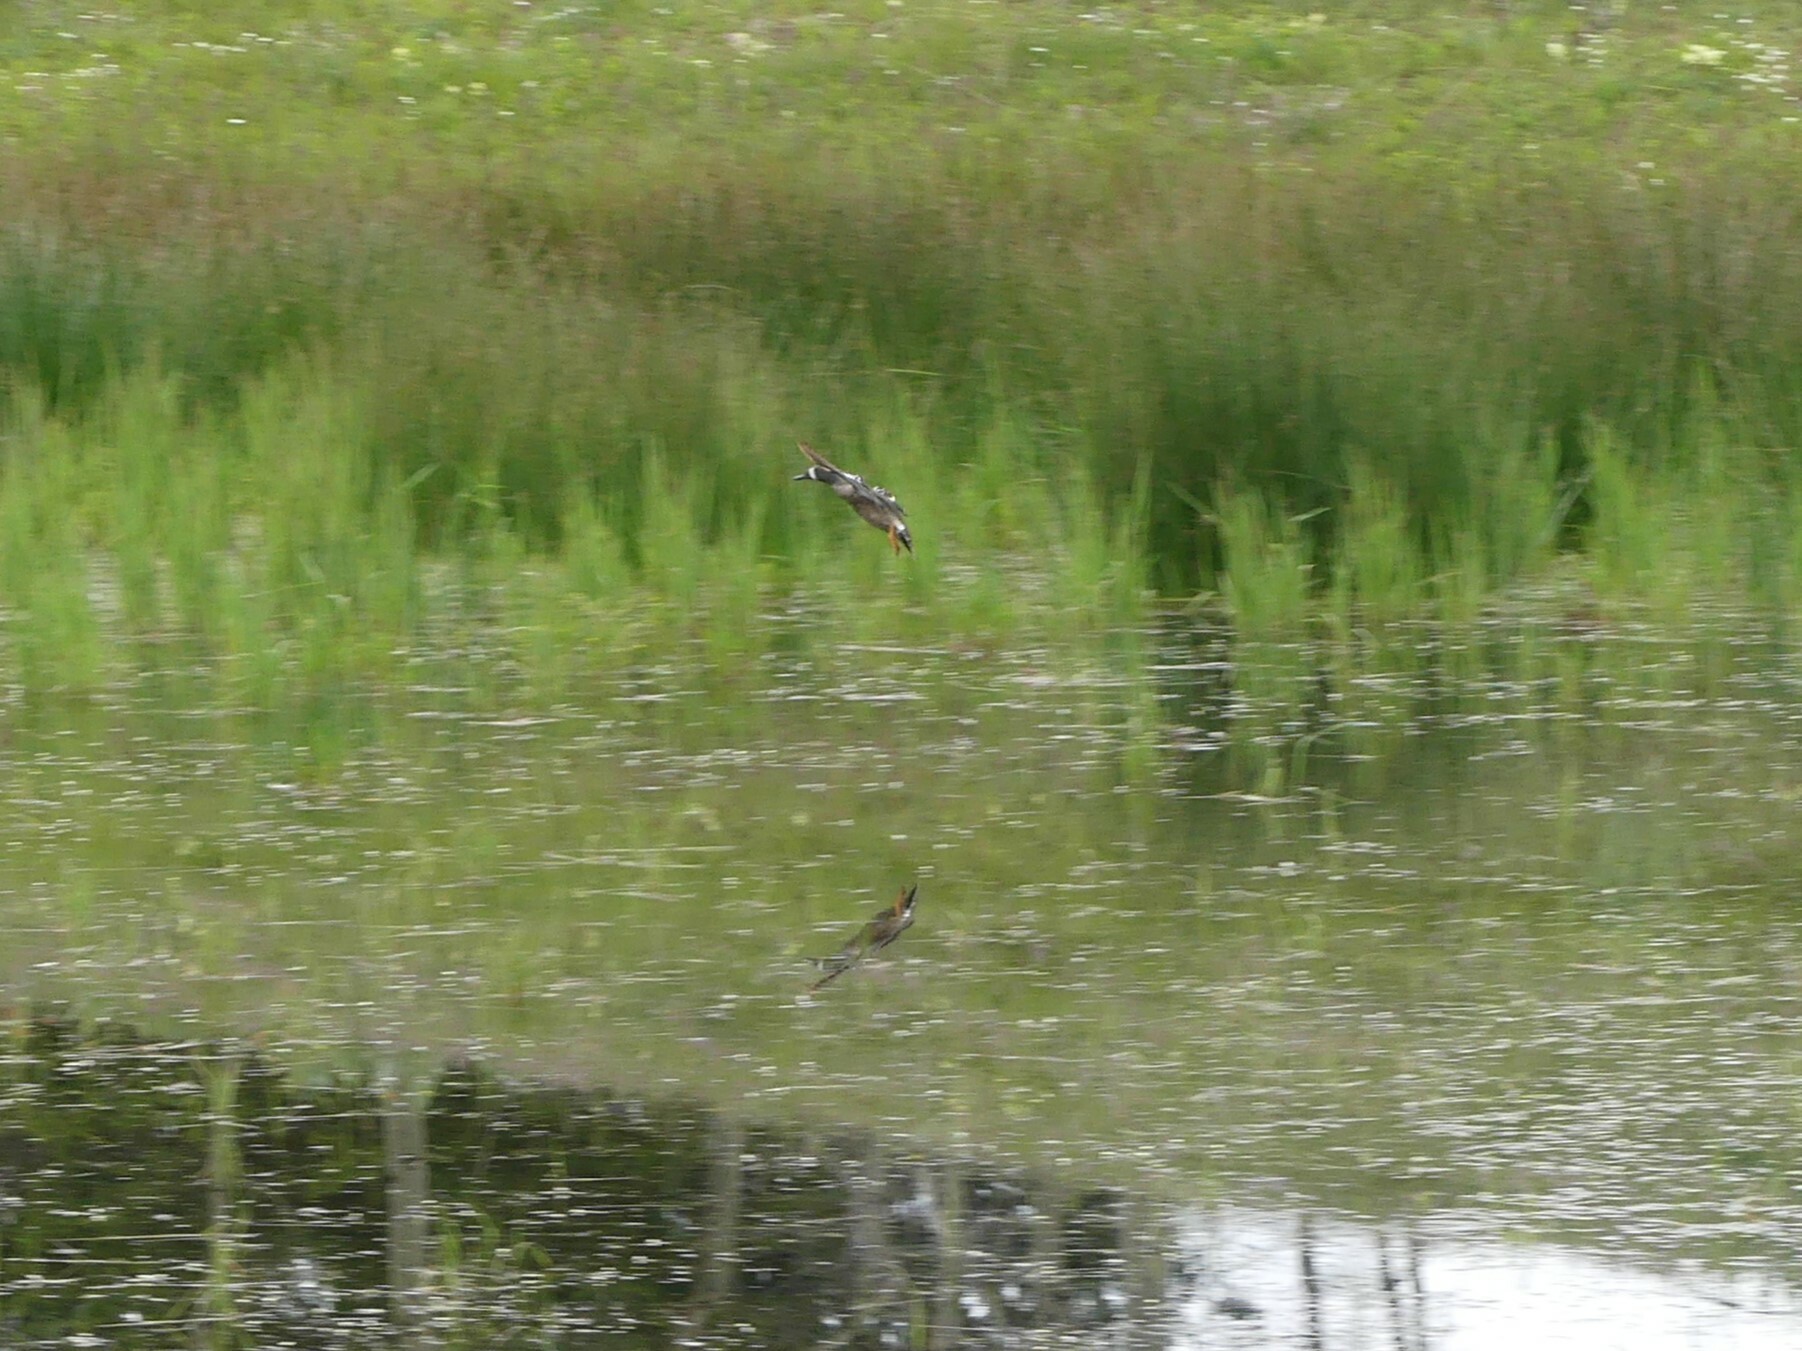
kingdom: Animalia
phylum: Chordata
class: Aves
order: Anseriformes
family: Anatidae
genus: Spatula
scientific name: Spatula discors
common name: Blue-winged teal
